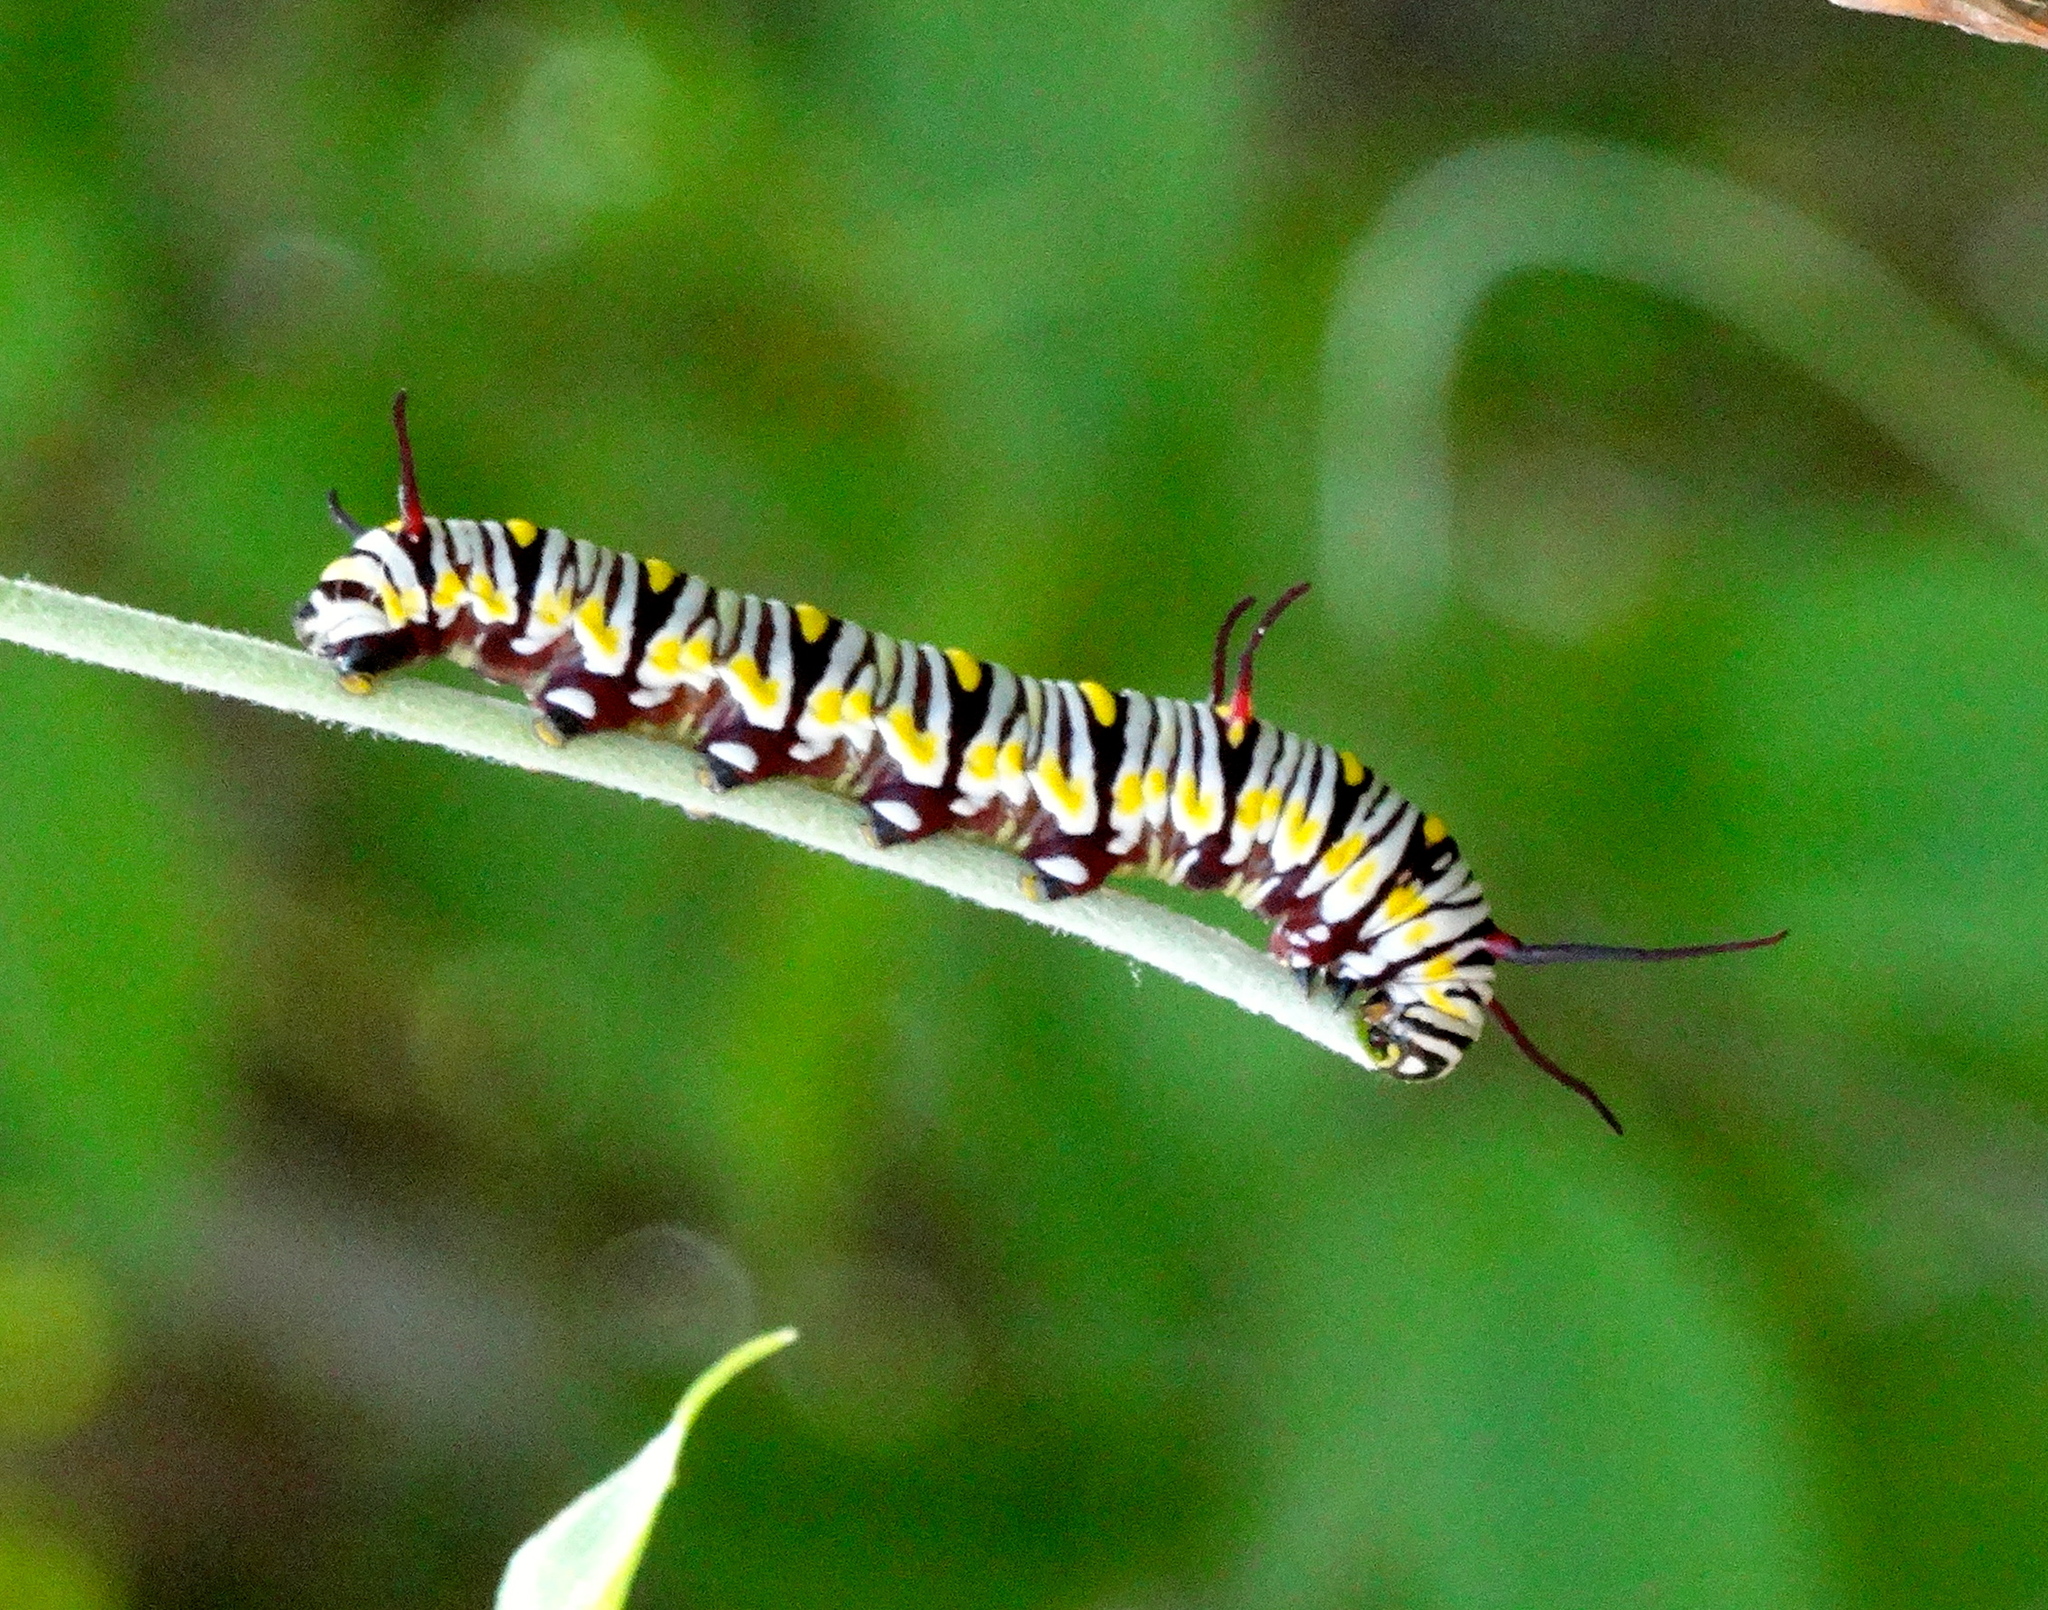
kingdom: Animalia
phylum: Arthropoda
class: Insecta
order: Lepidoptera
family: Nymphalidae
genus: Danaus
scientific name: Danaus
